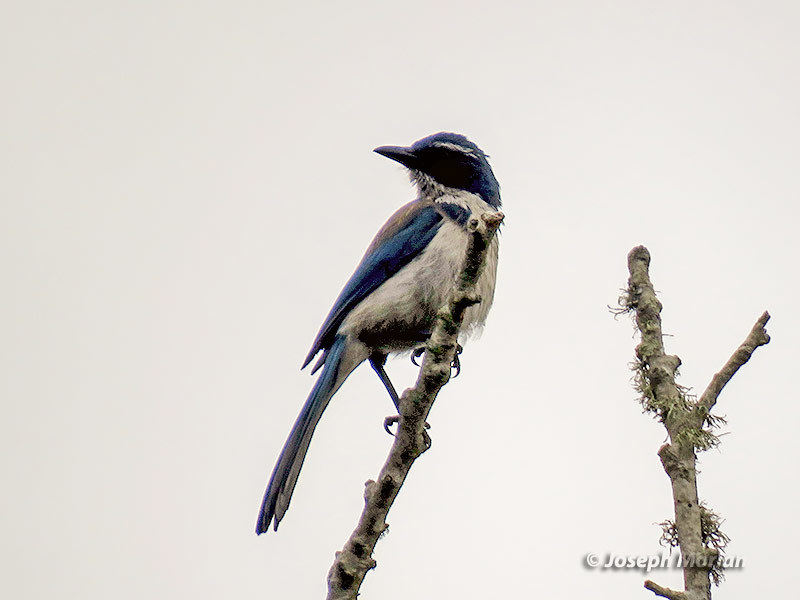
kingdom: Animalia
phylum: Chordata
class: Aves
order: Passeriformes
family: Corvidae
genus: Aphelocoma
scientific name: Aphelocoma californica
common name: California scrub-jay
